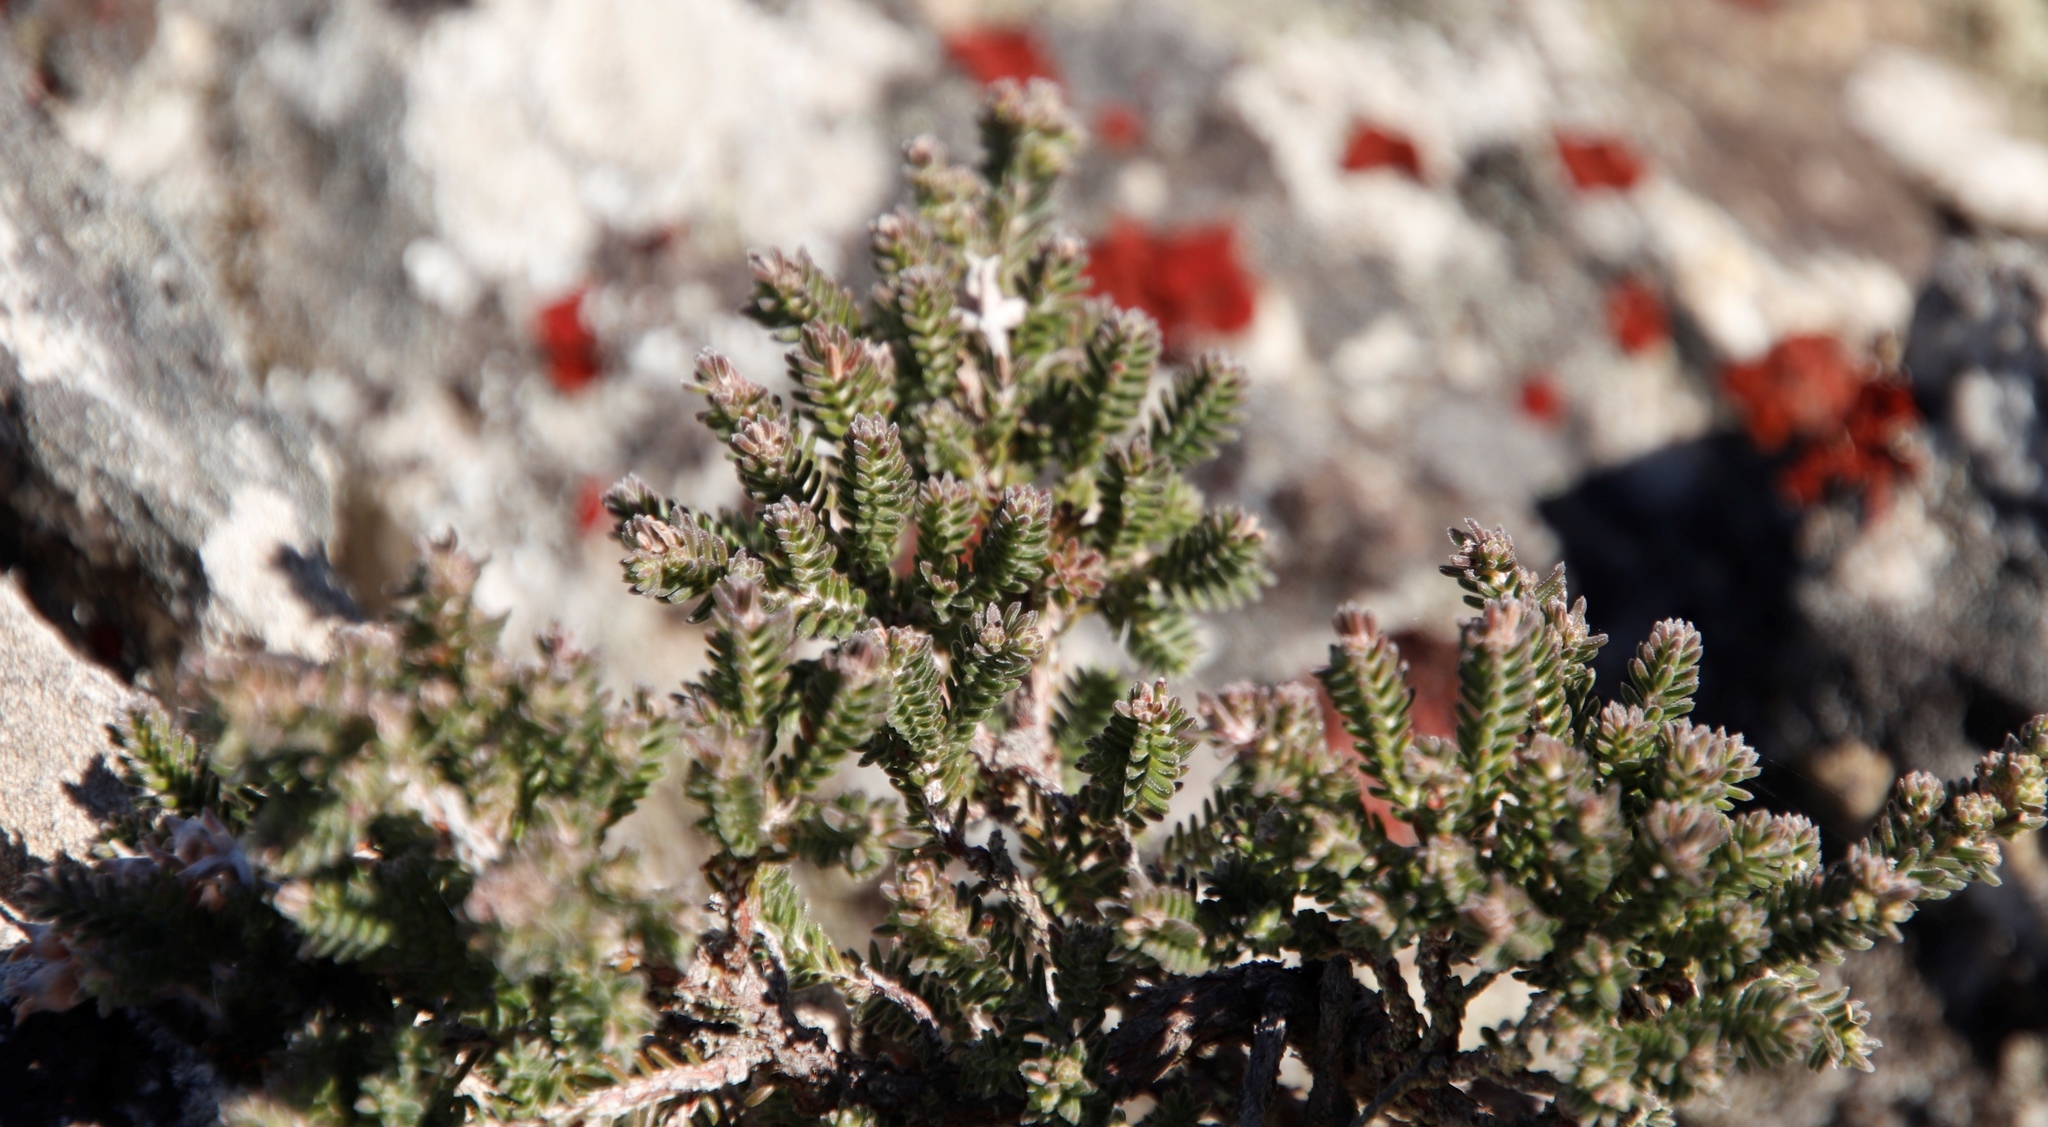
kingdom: Plantae
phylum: Tracheophyta
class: Magnoliopsida
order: Ericales
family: Ericaceae
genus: Erica
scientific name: Erica modesta
